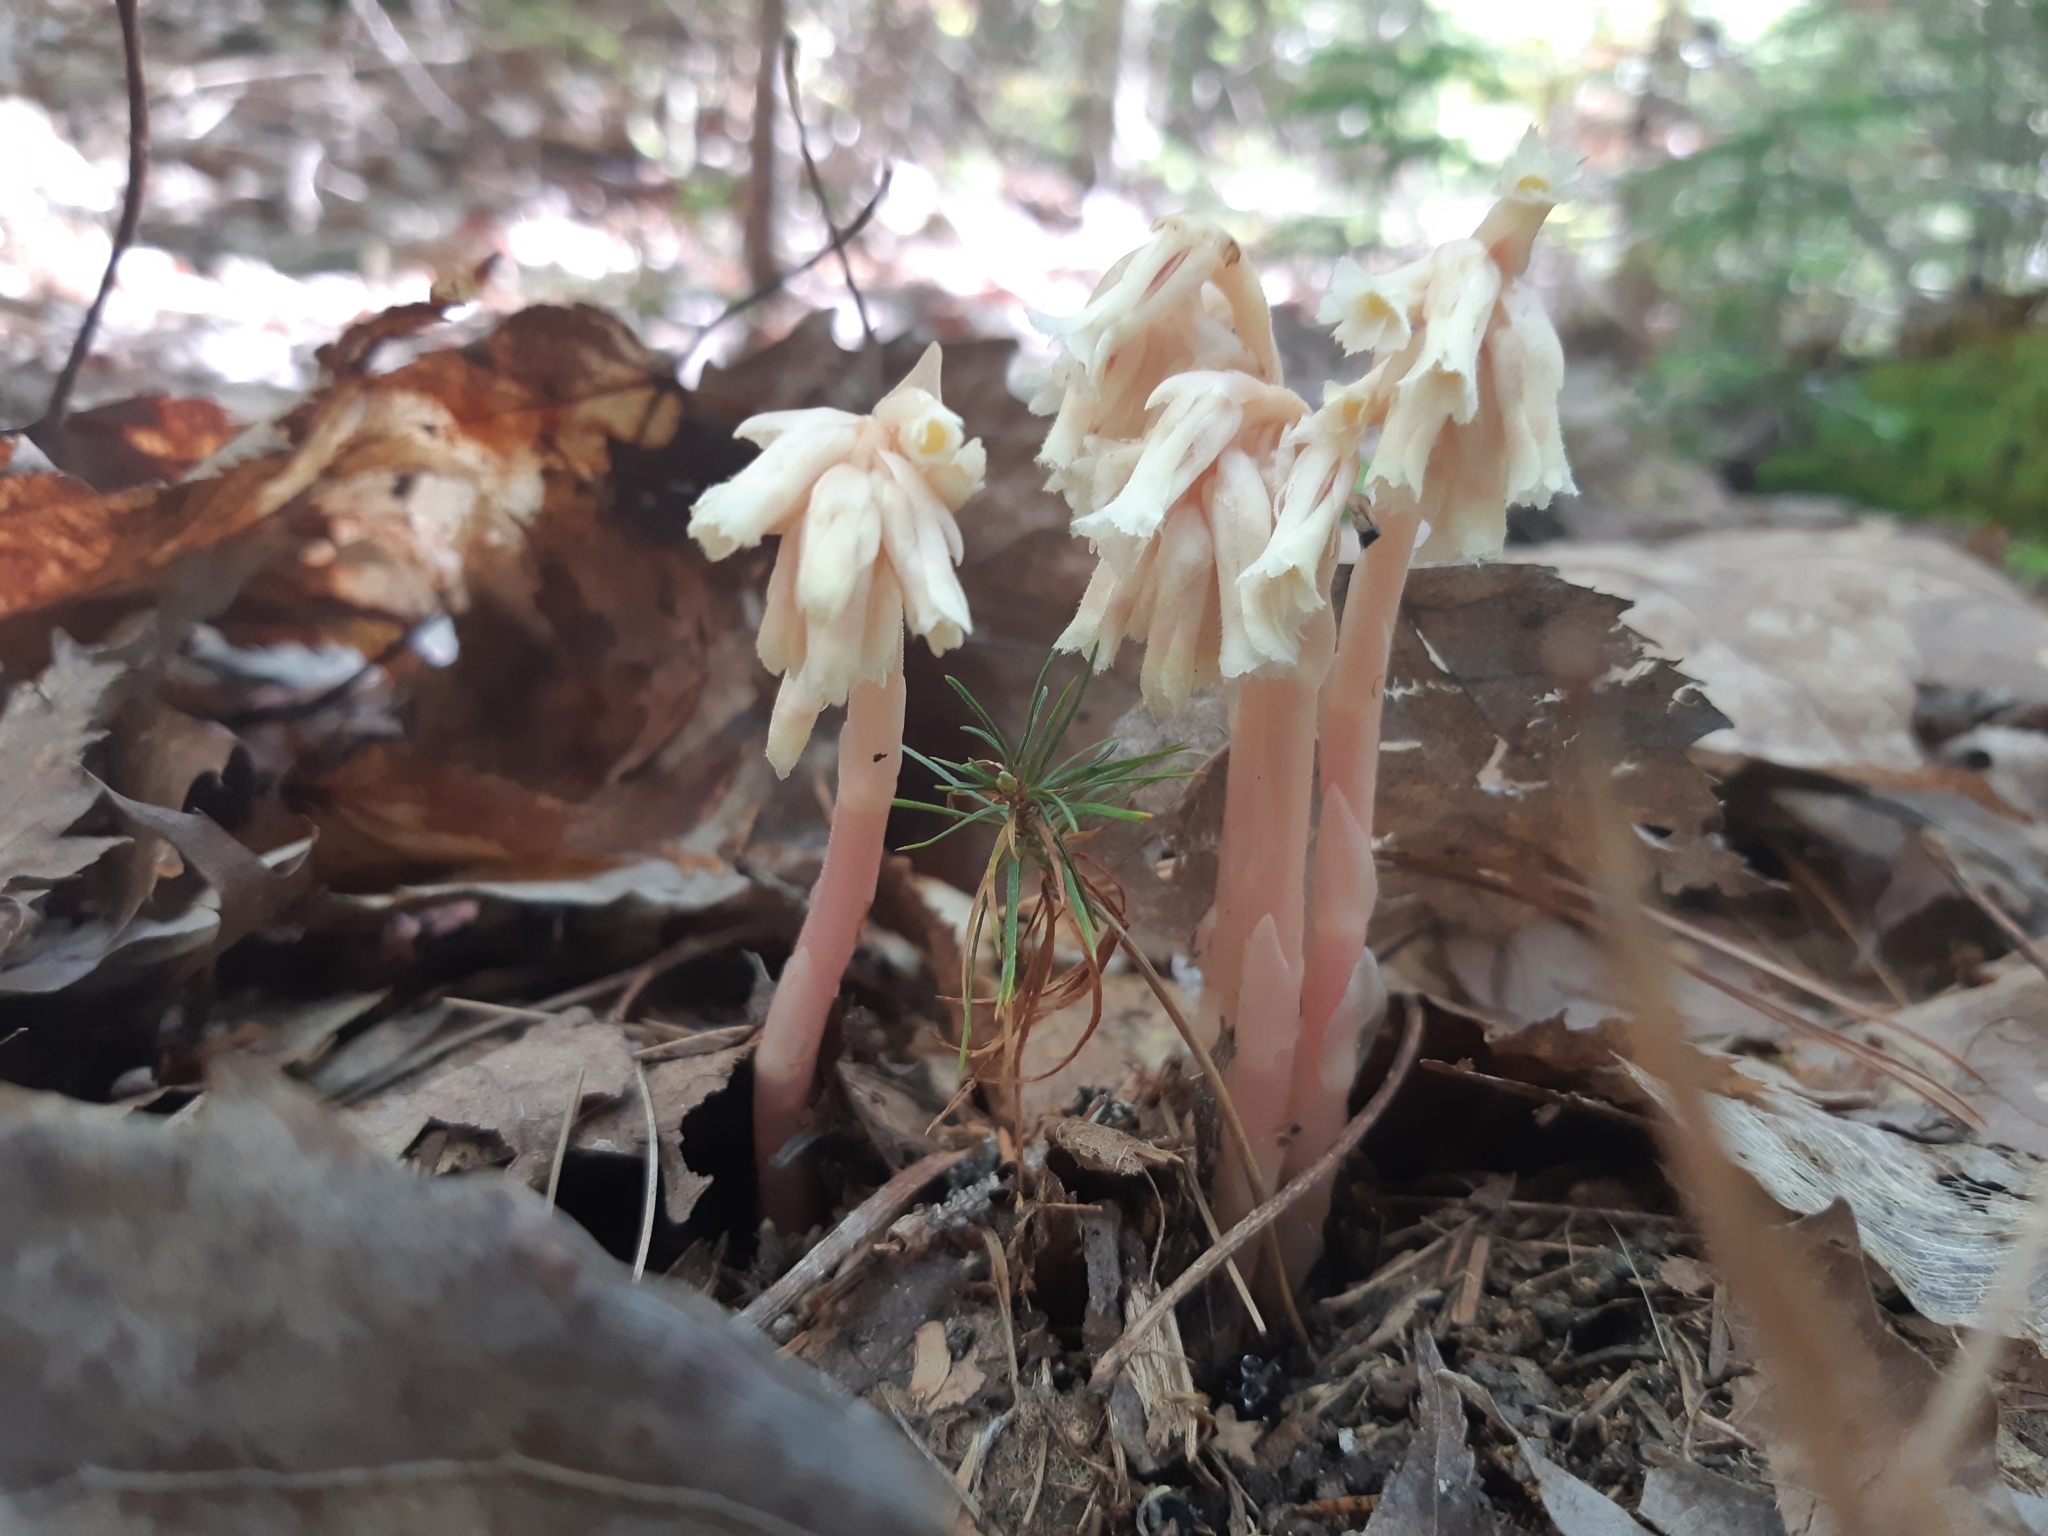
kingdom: Plantae
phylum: Tracheophyta
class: Magnoliopsida
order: Ericales
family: Ericaceae
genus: Hypopitys
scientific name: Hypopitys monotropa
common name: Yellow bird's-nest
